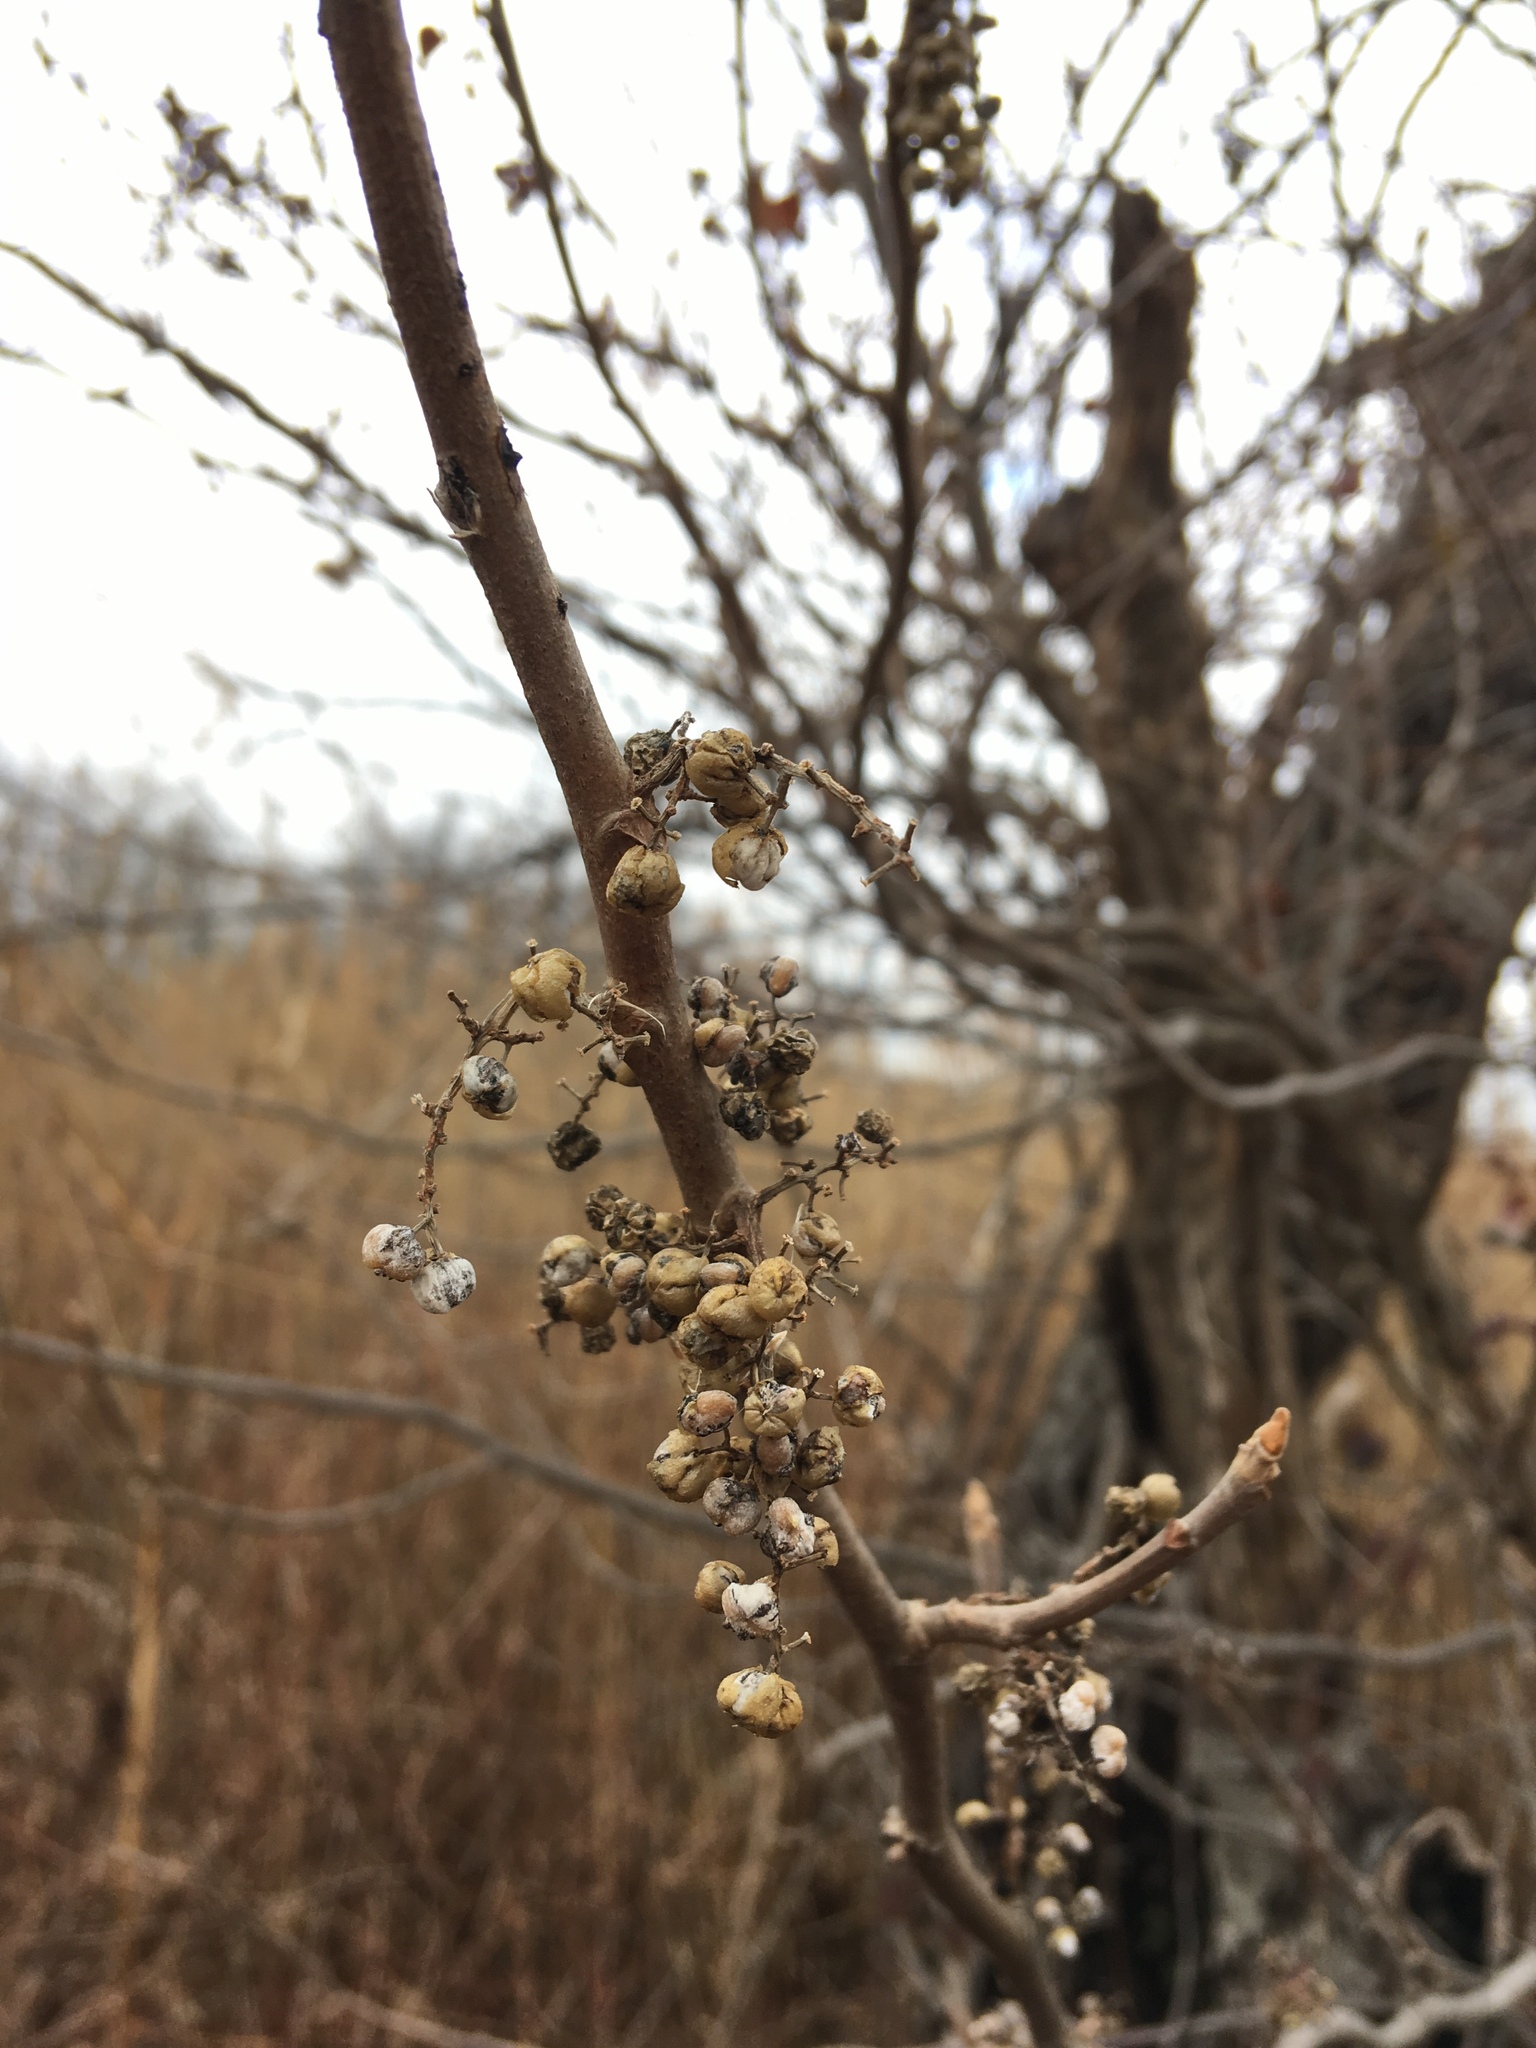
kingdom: Plantae
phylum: Tracheophyta
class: Magnoliopsida
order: Sapindales
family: Anacardiaceae
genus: Toxicodendron
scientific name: Toxicodendron radicans
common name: Poison ivy
